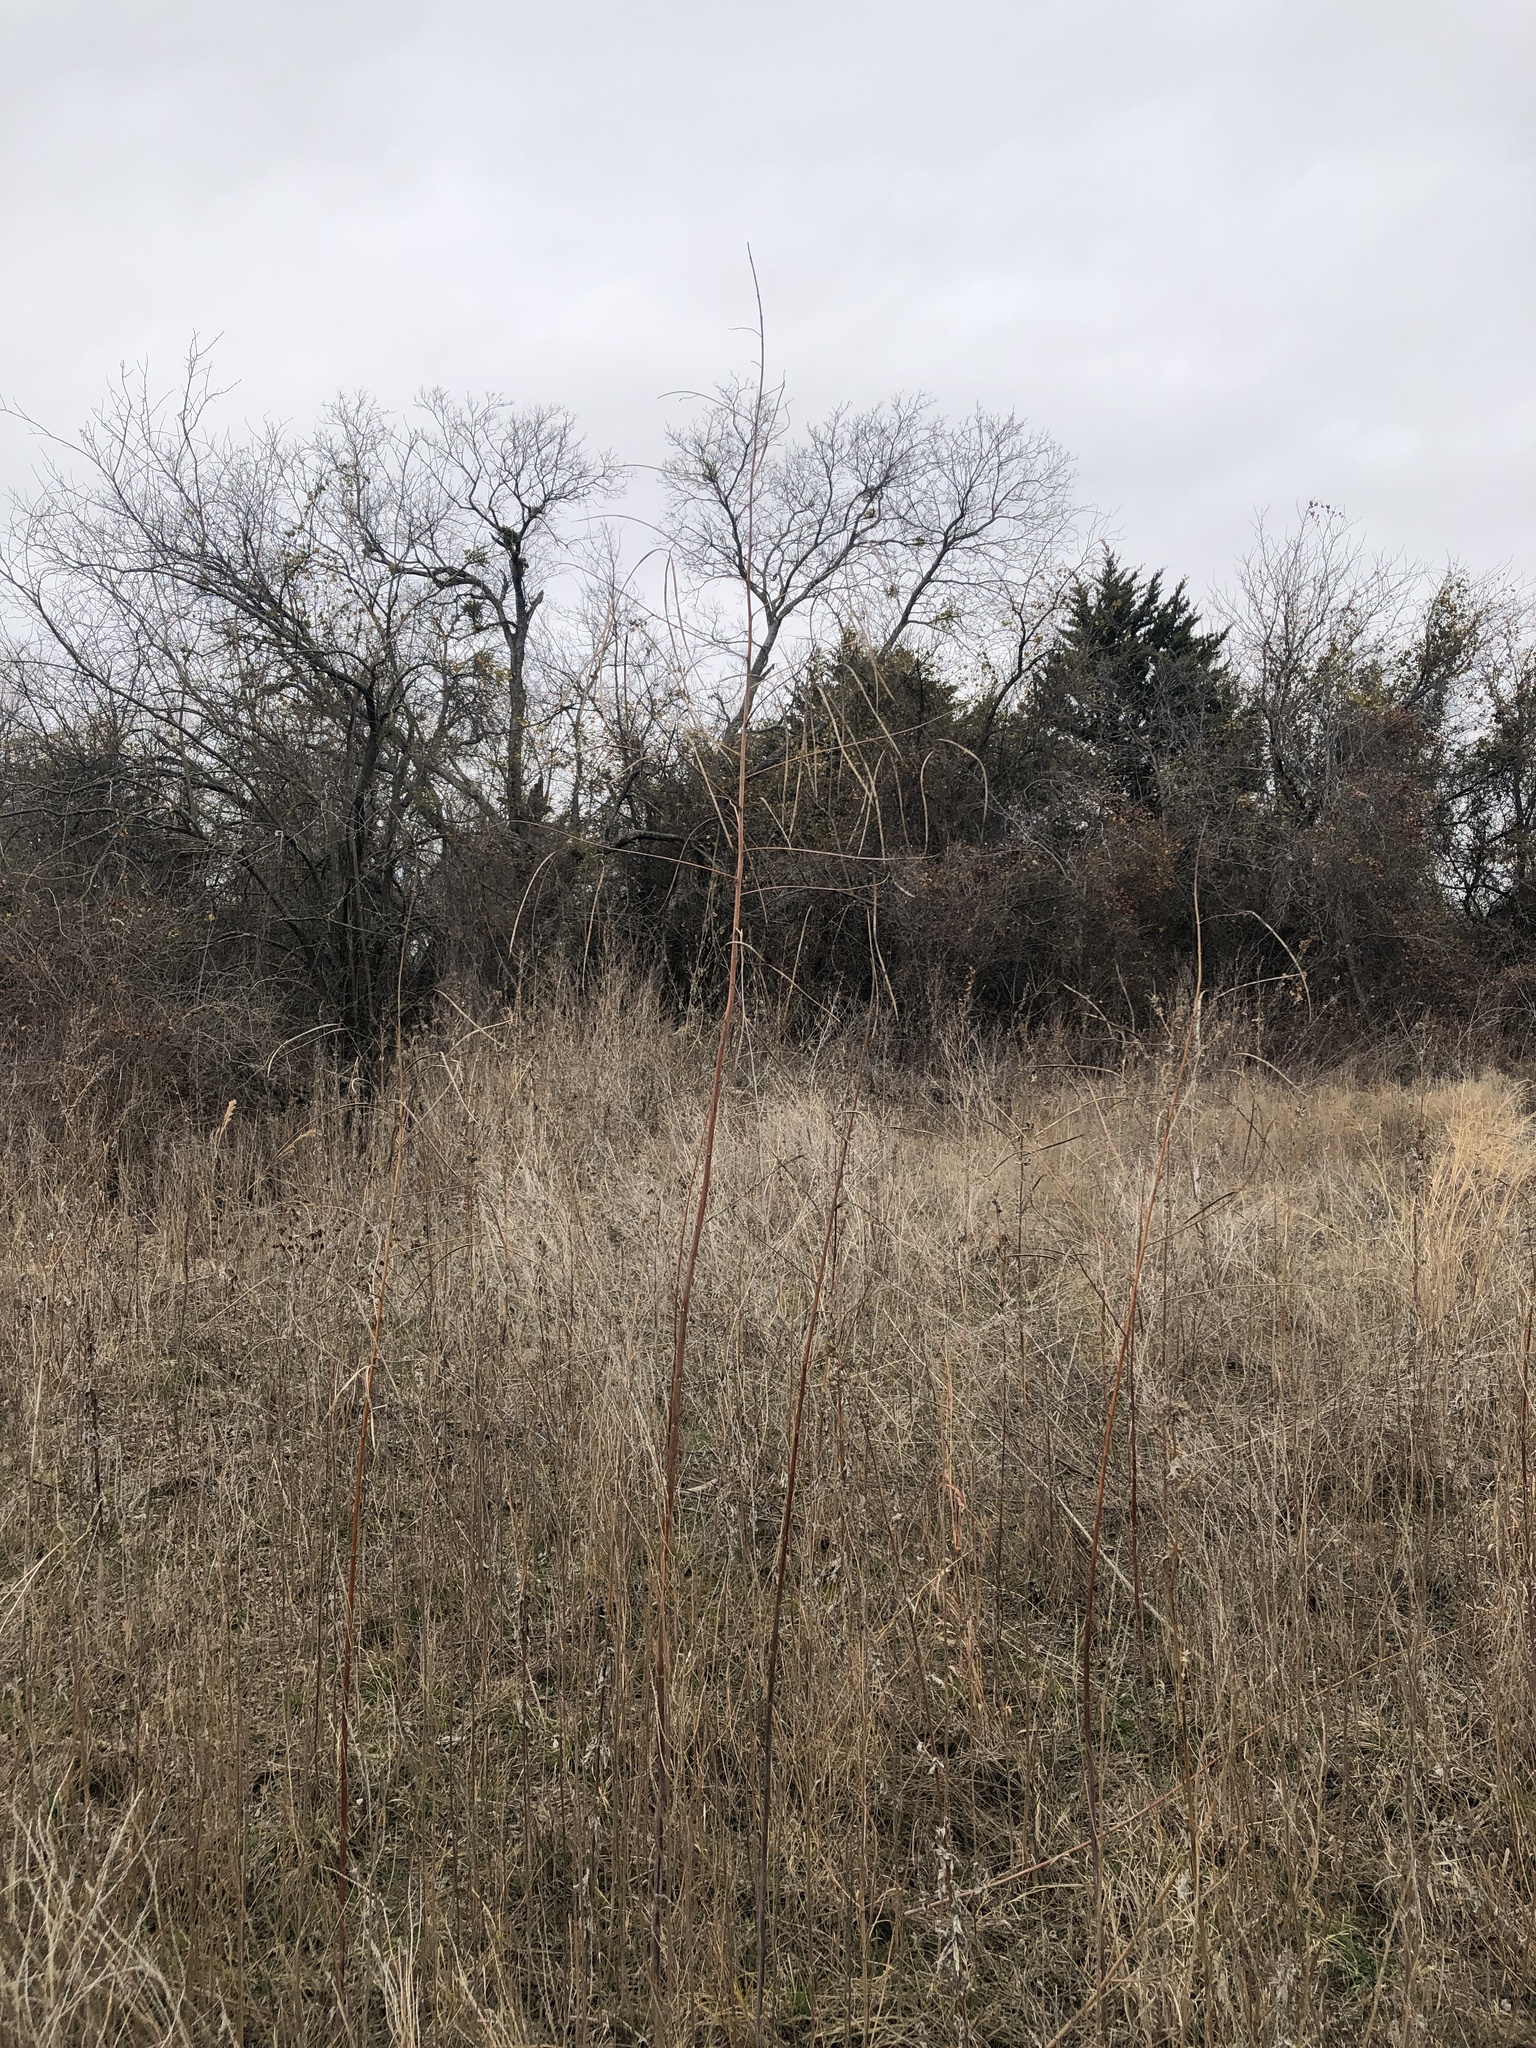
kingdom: Plantae
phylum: Tracheophyta
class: Magnoliopsida
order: Fabales
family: Fabaceae
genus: Sesbania
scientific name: Sesbania herbacea
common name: Bigpod sesbania
